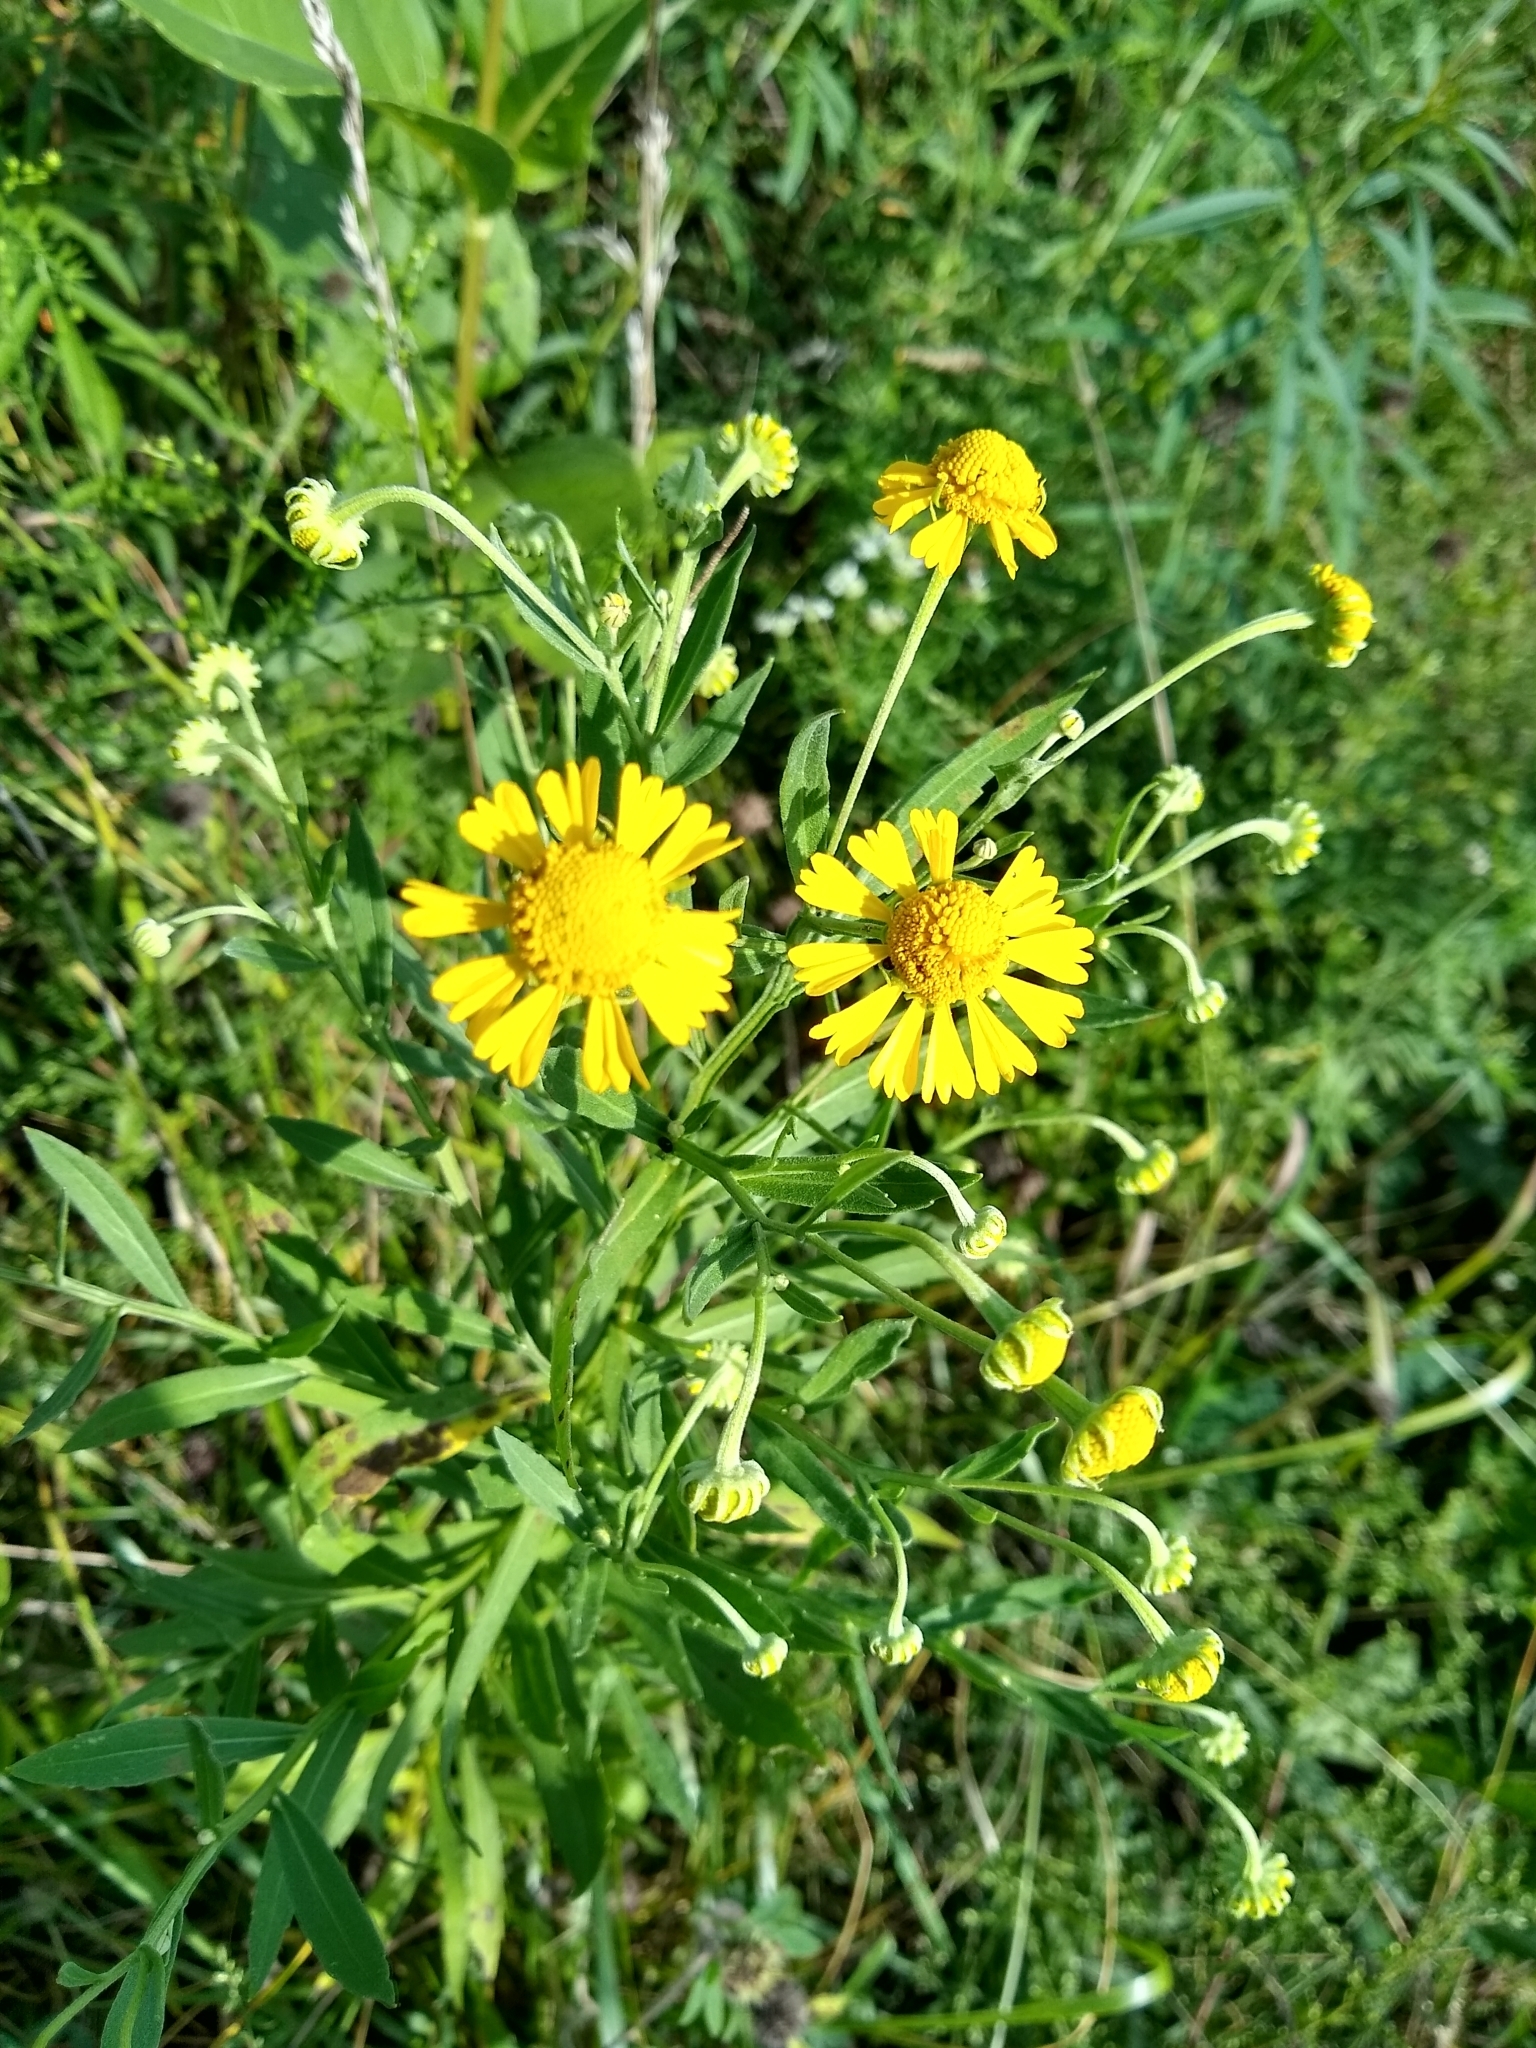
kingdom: Plantae
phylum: Tracheophyta
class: Magnoliopsida
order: Asterales
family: Asteraceae
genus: Helenium
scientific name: Helenium autumnale
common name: Sneezeweed
